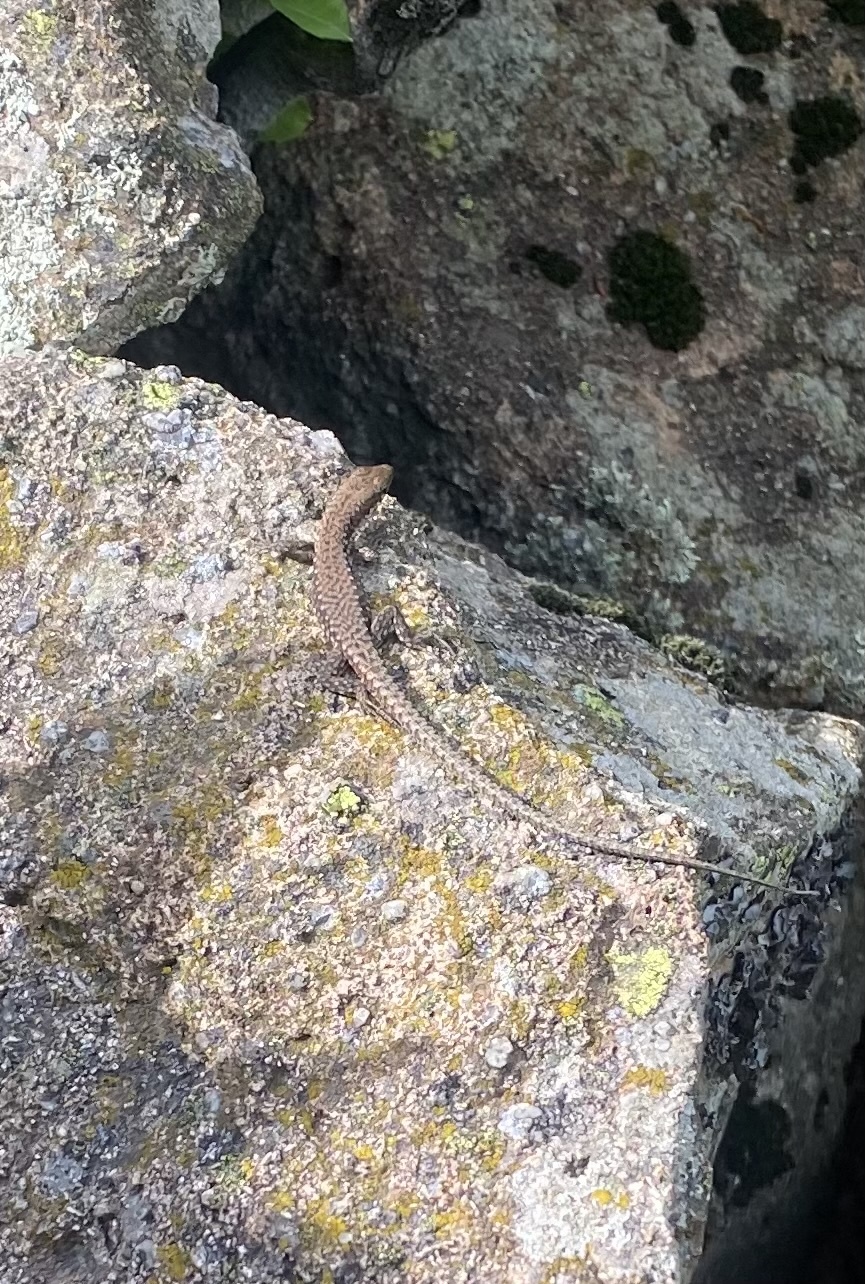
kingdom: Animalia
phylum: Chordata
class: Squamata
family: Lacertidae
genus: Darevskia
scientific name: Darevskia brauneri
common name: Brauner's rock lizard
